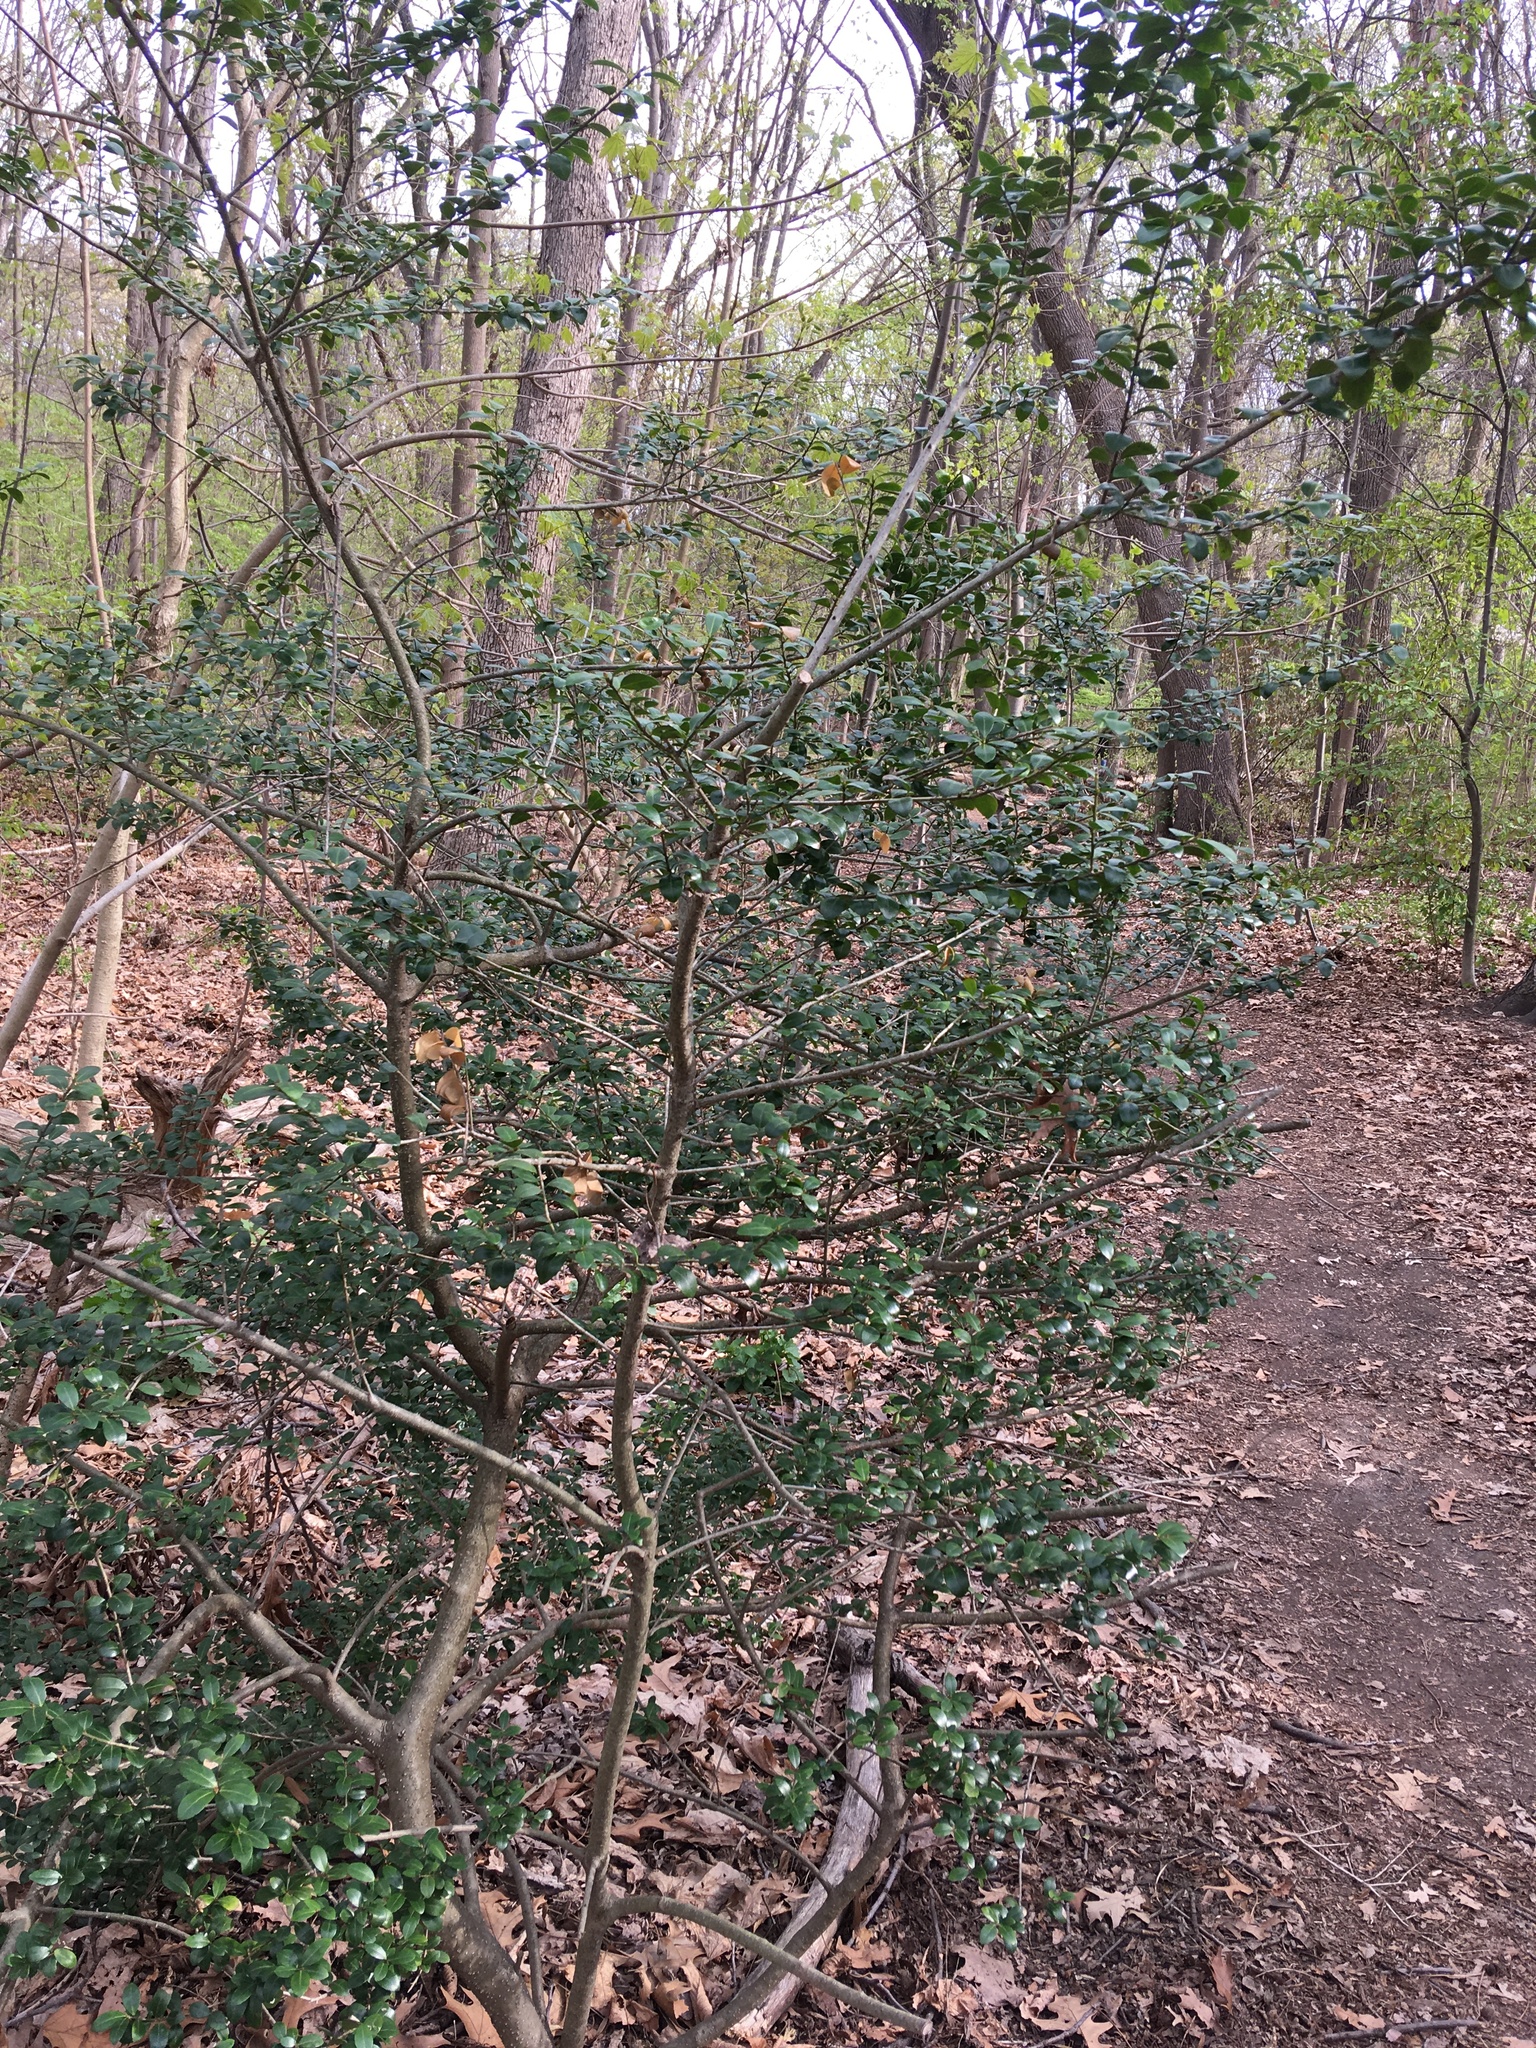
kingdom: Plantae
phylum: Tracheophyta
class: Magnoliopsida
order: Aquifoliales
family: Aquifoliaceae
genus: Ilex
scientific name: Ilex crenata
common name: Japanese holly
